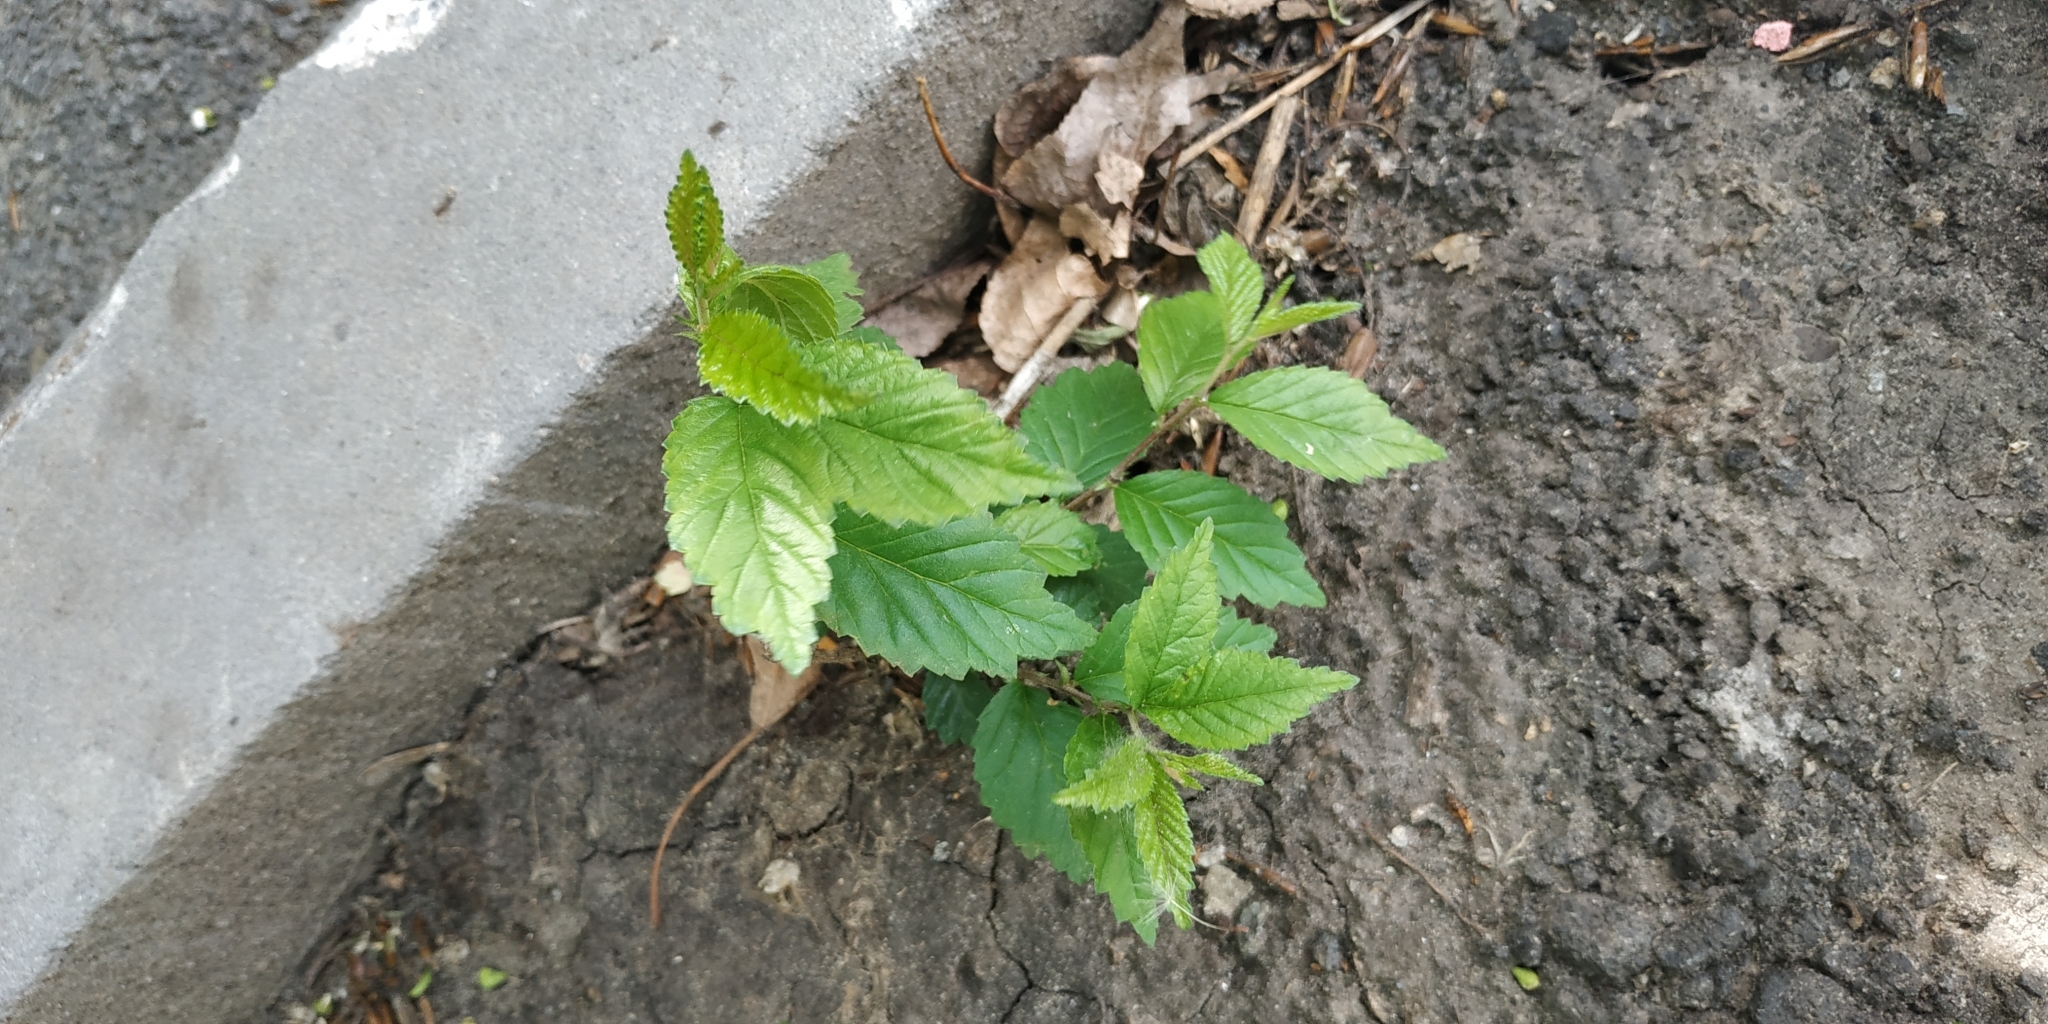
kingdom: Plantae
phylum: Tracheophyta
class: Magnoliopsida
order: Rosales
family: Ulmaceae
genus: Ulmus
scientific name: Ulmus pumila
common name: Siberian elm
